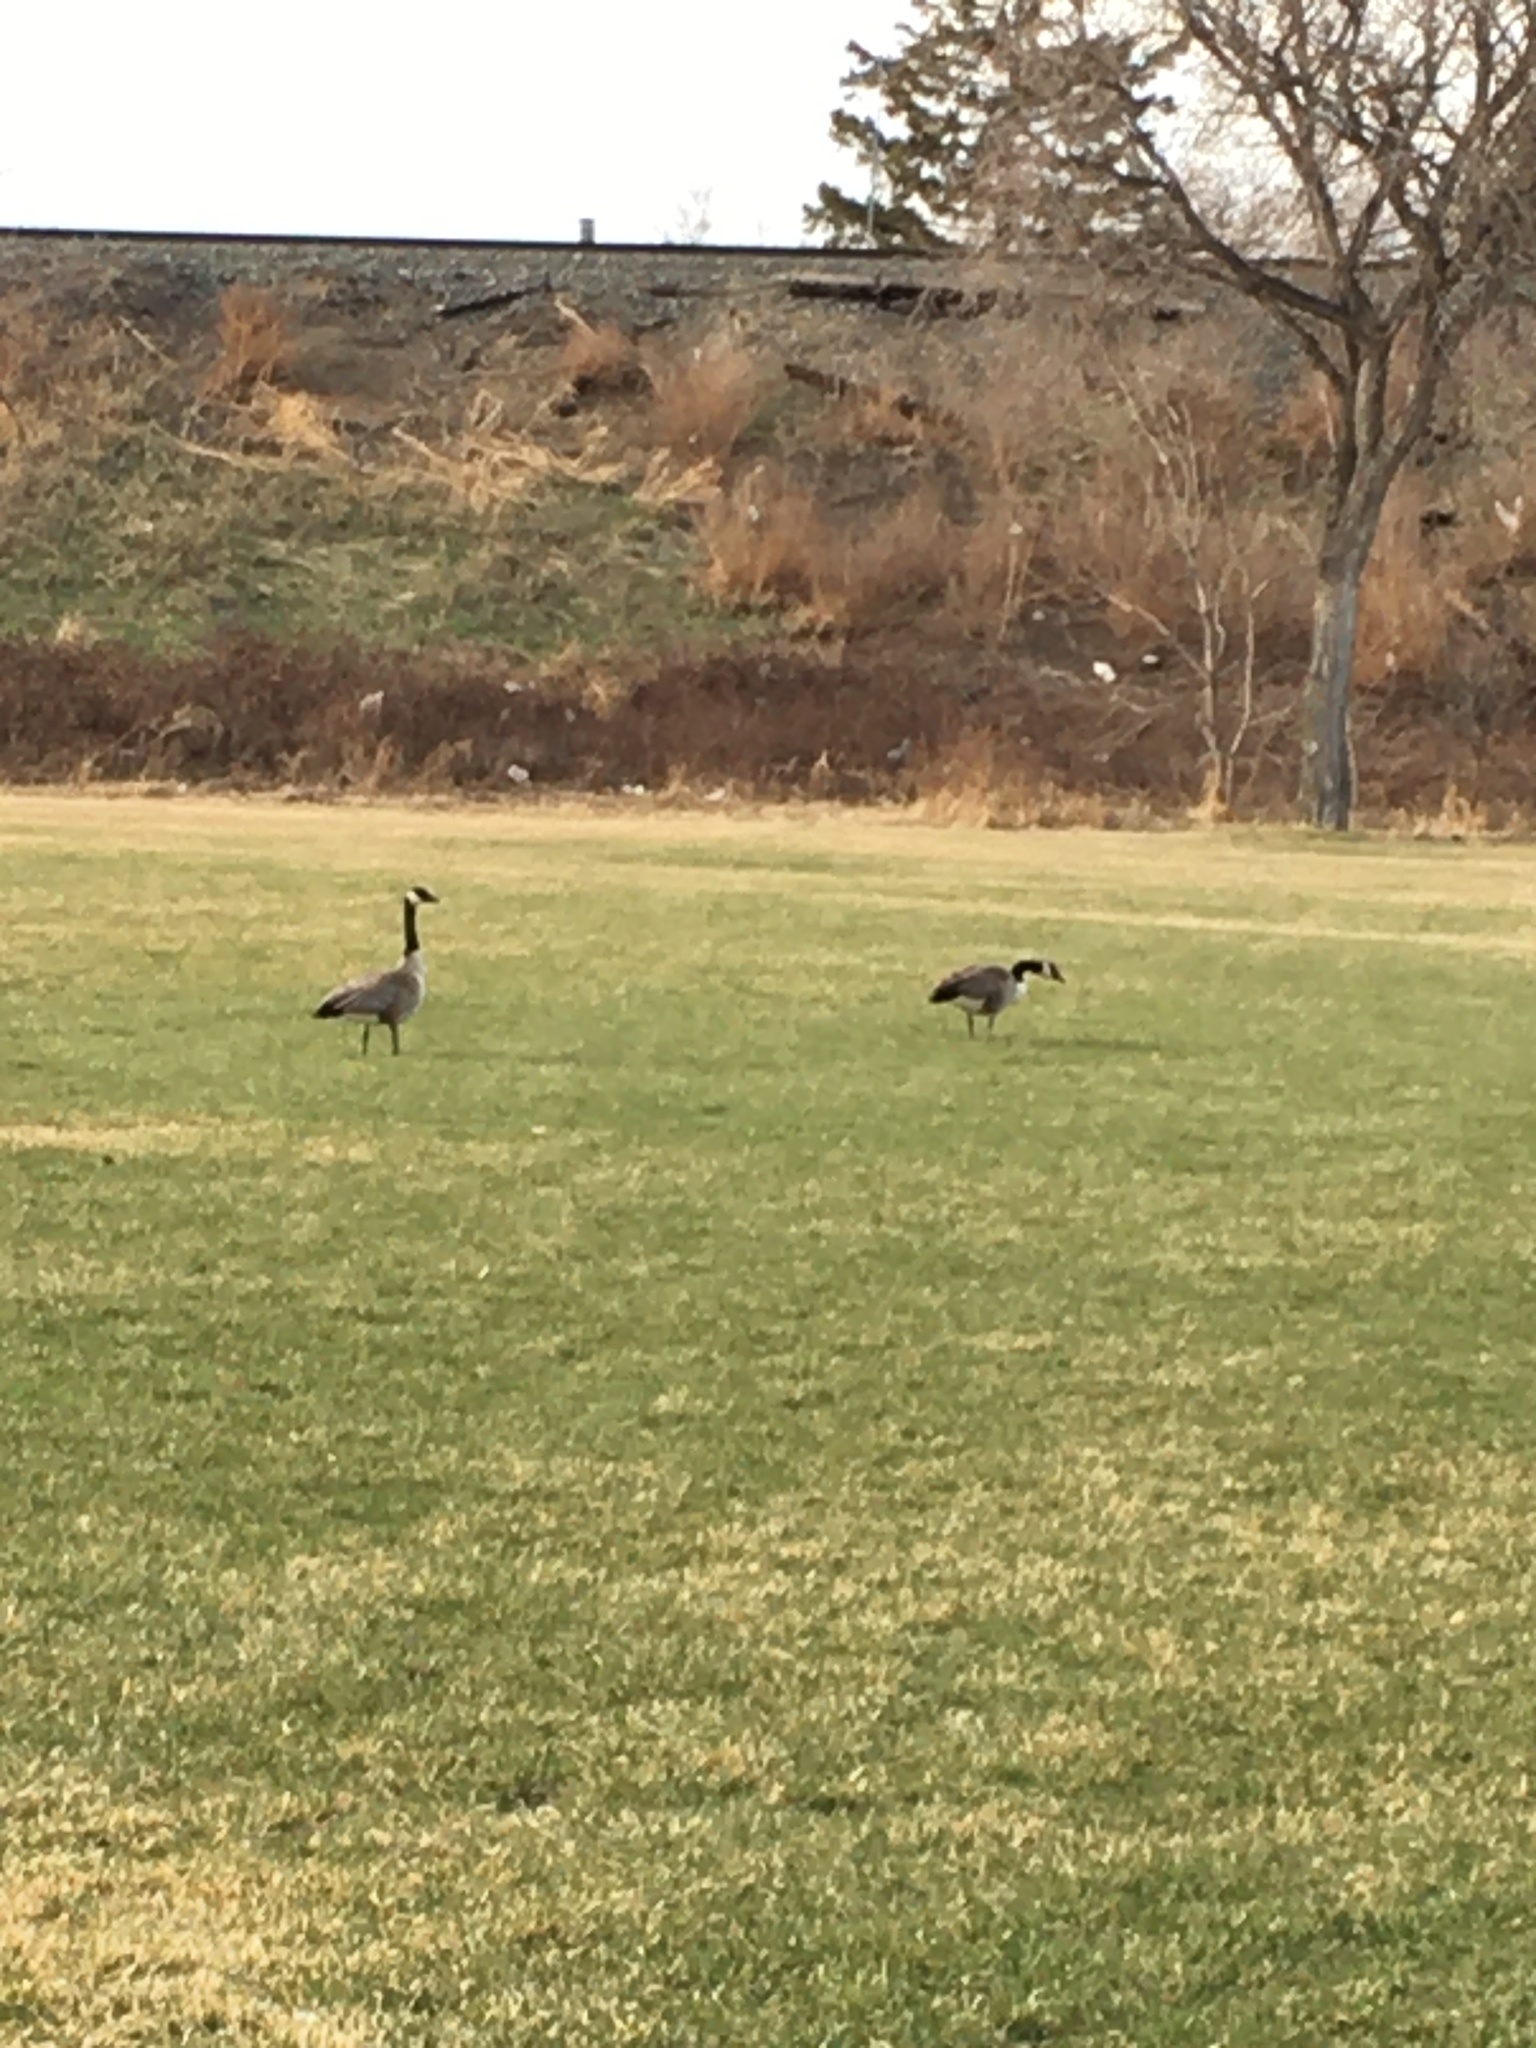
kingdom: Animalia
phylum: Chordata
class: Aves
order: Anseriformes
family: Anatidae
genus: Branta
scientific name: Branta canadensis
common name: Canada goose
